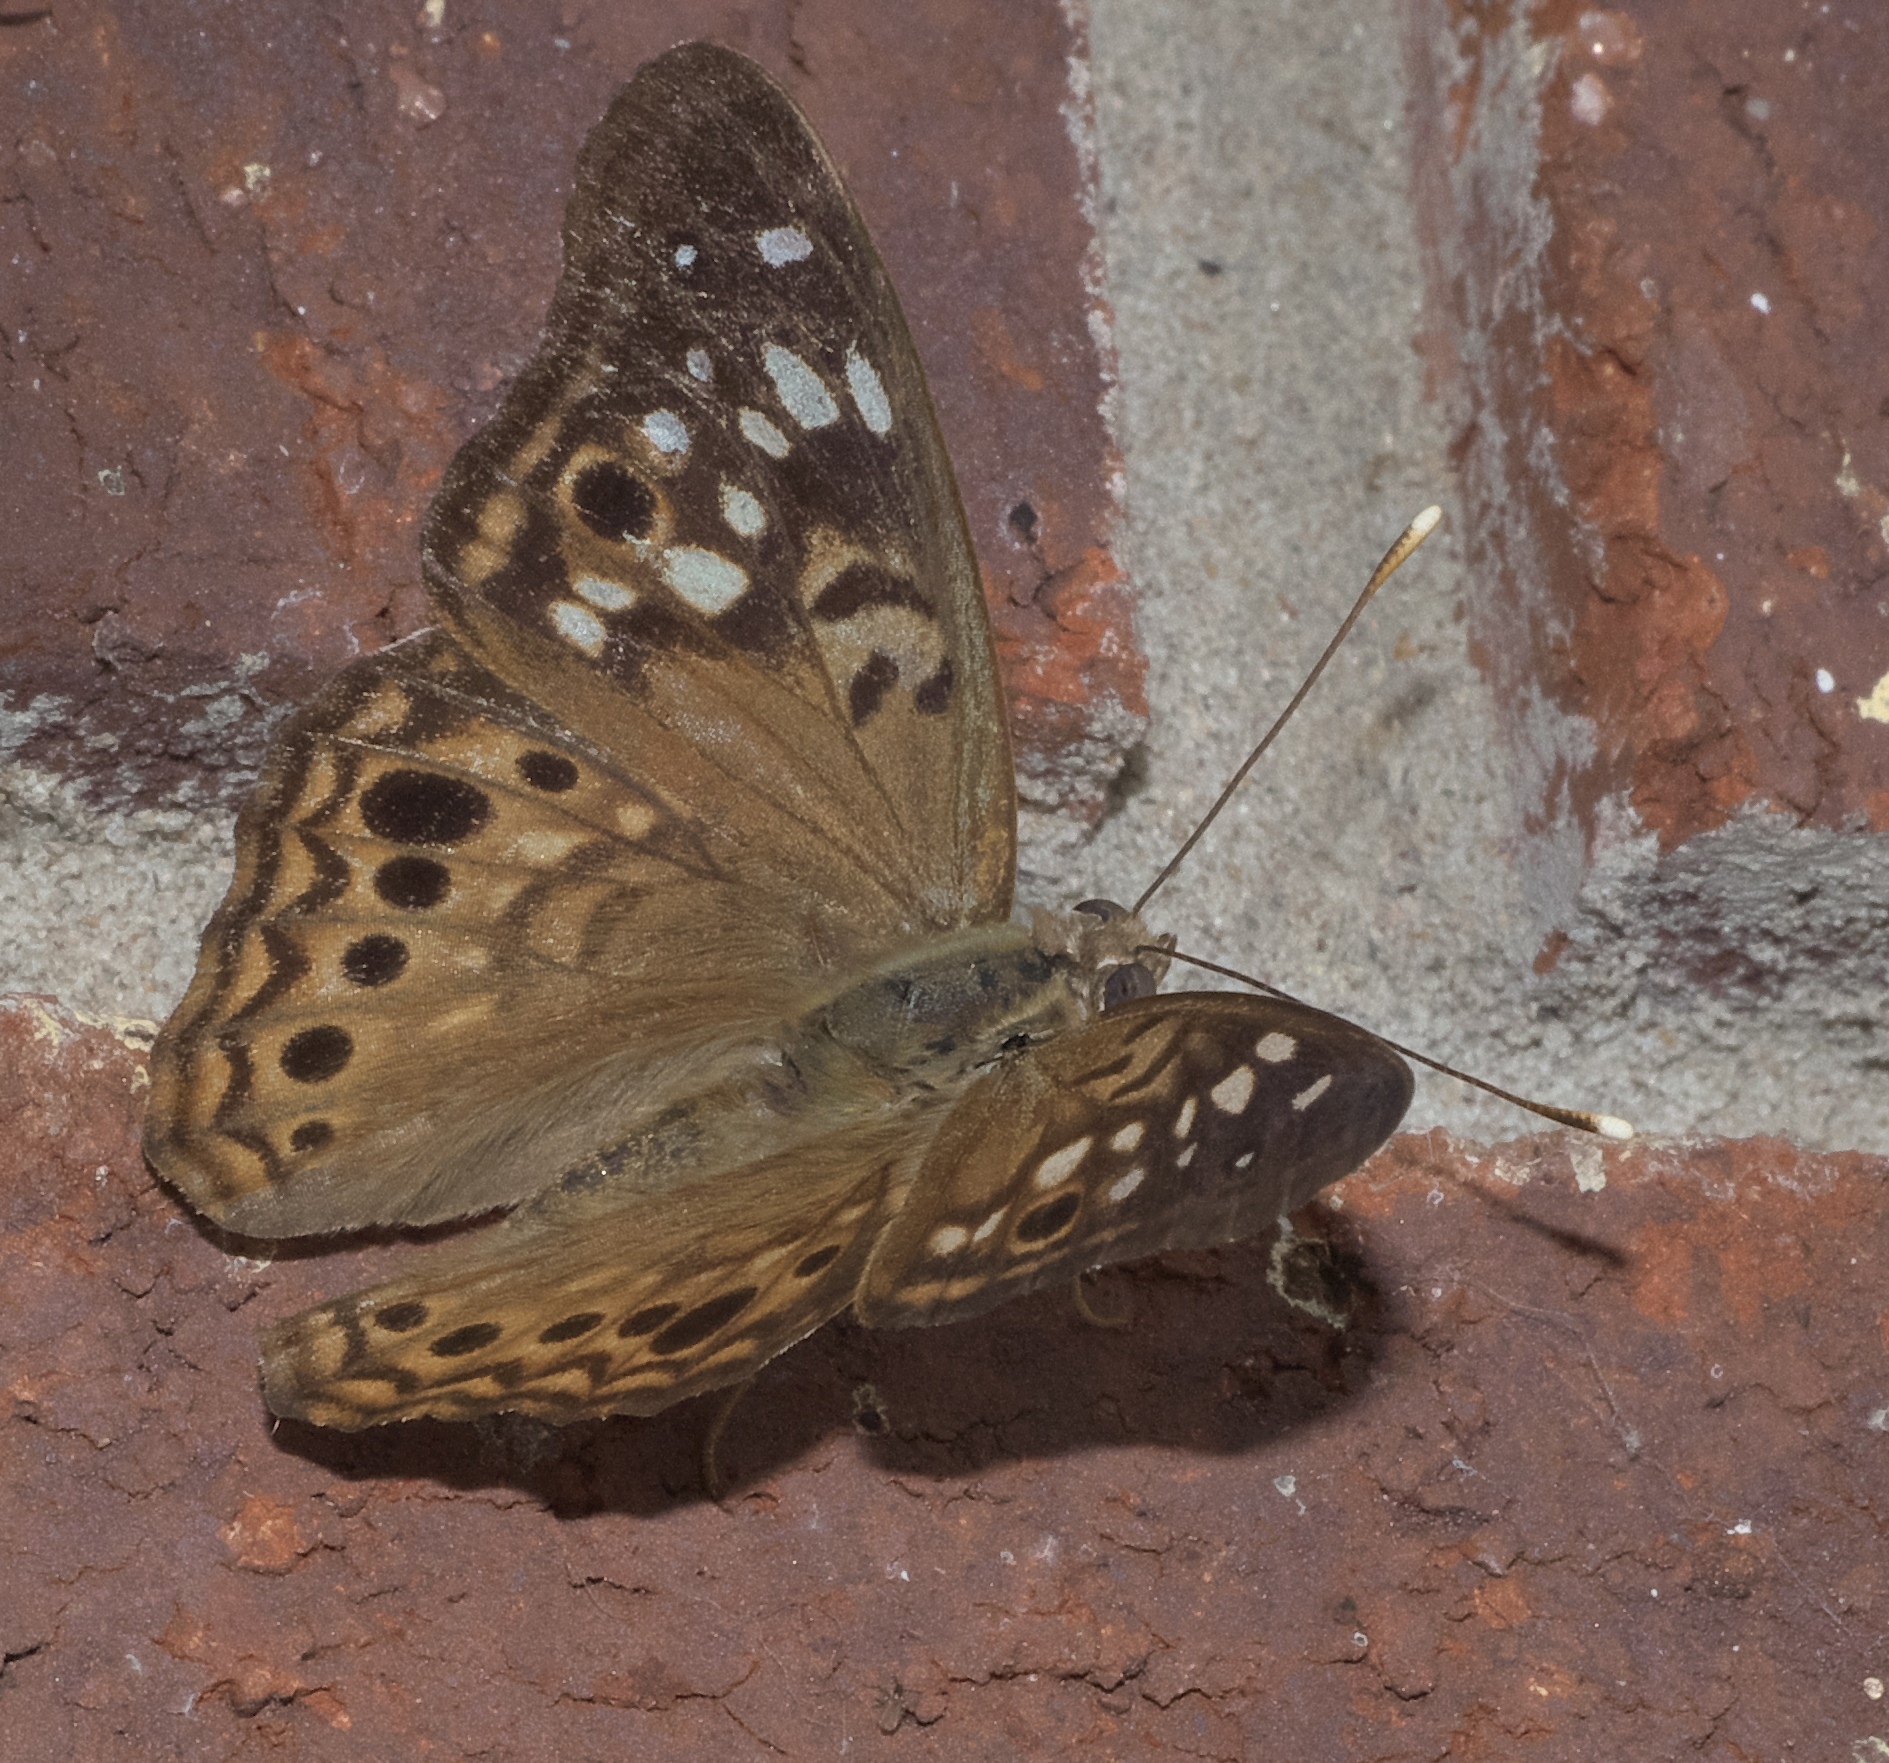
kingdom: Animalia
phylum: Arthropoda
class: Insecta
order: Lepidoptera
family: Nymphalidae
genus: Asterocampa
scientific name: Asterocampa celtis
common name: Hackberry emperor
